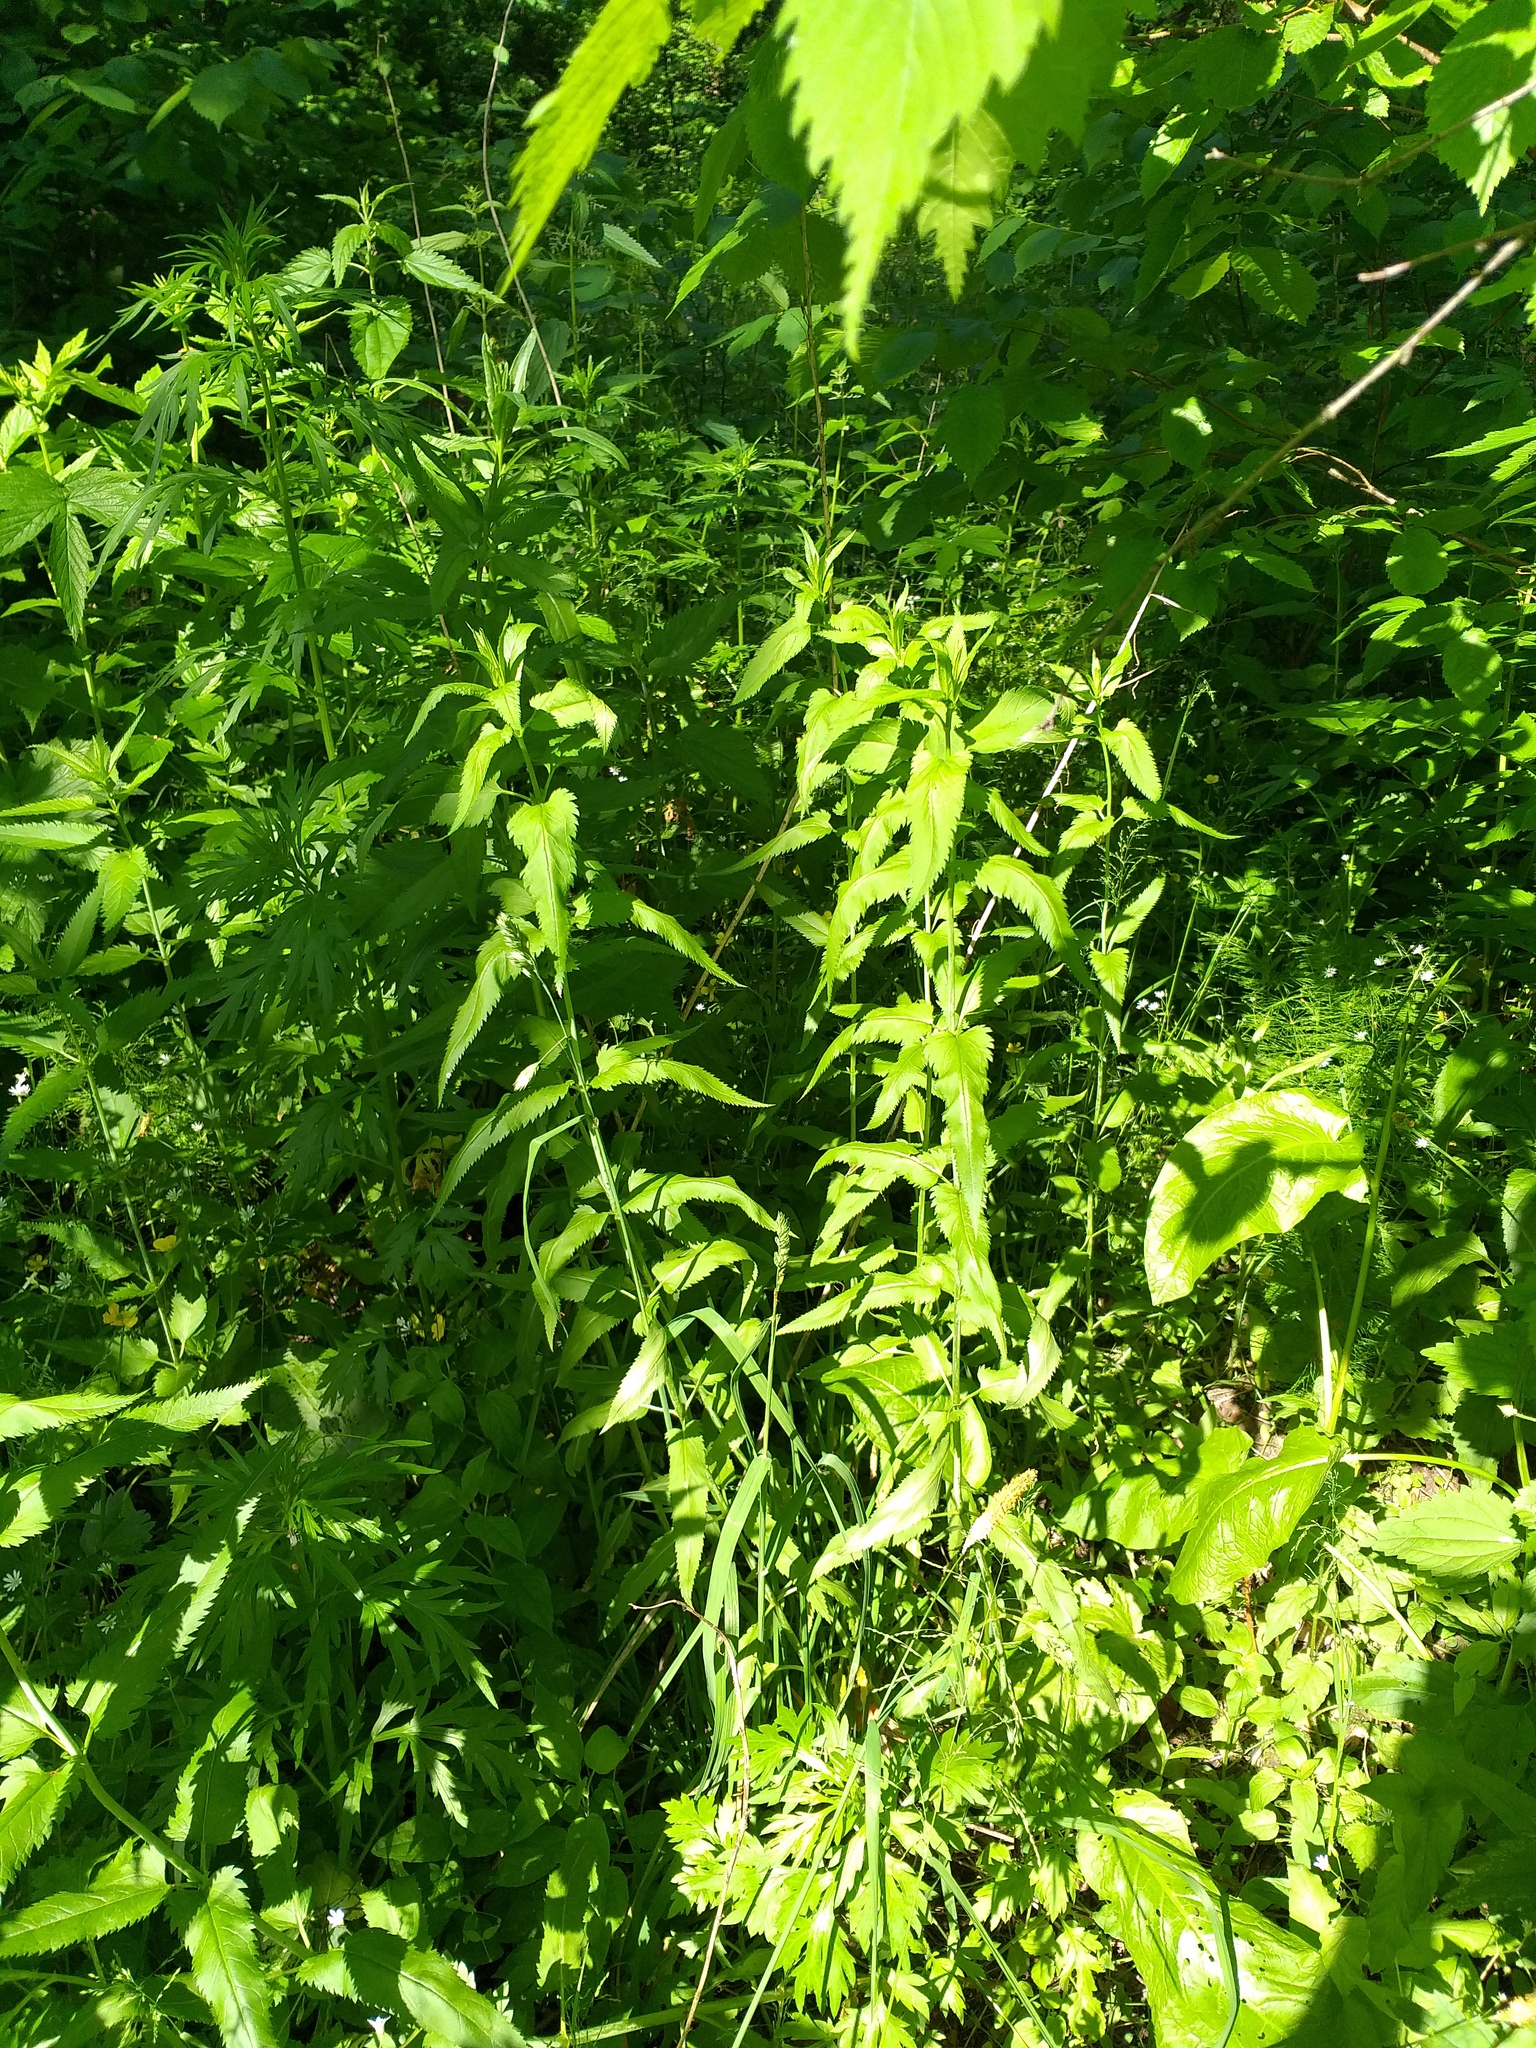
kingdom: Plantae
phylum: Tracheophyta
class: Magnoliopsida
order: Lamiales
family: Plantaginaceae
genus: Veronica
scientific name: Veronica longifolia
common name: Garden speedwell
